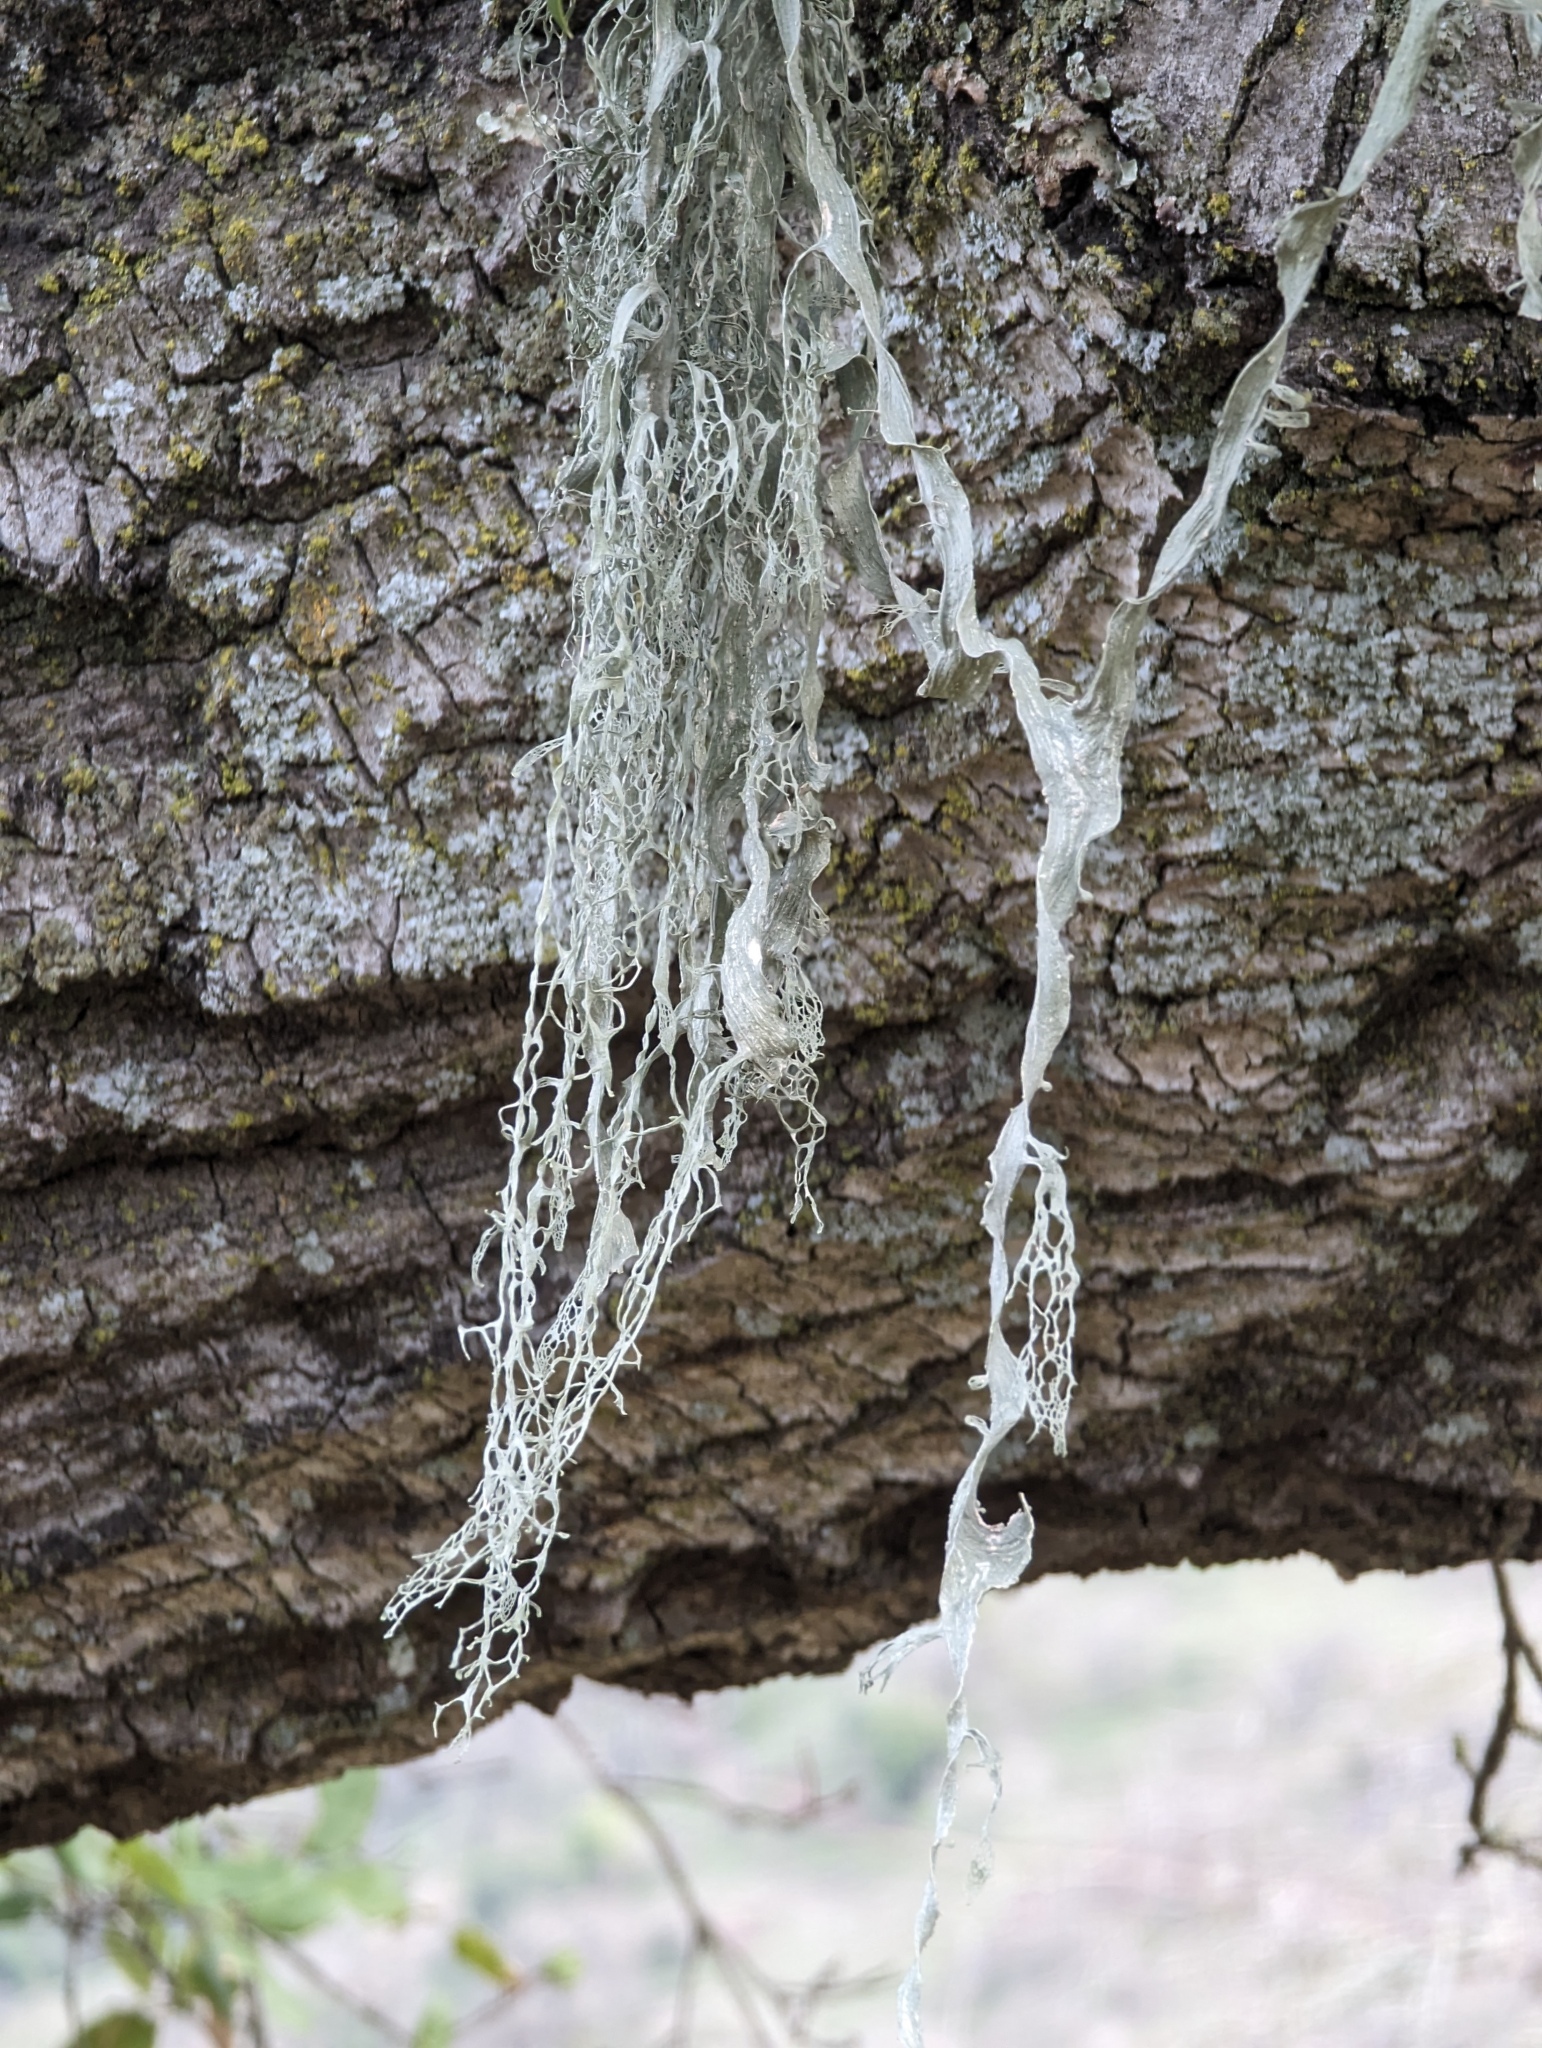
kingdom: Fungi
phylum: Ascomycota
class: Lecanoromycetes
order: Lecanorales
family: Ramalinaceae
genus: Ramalina
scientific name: Ramalina menziesii
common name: Lace lichen
